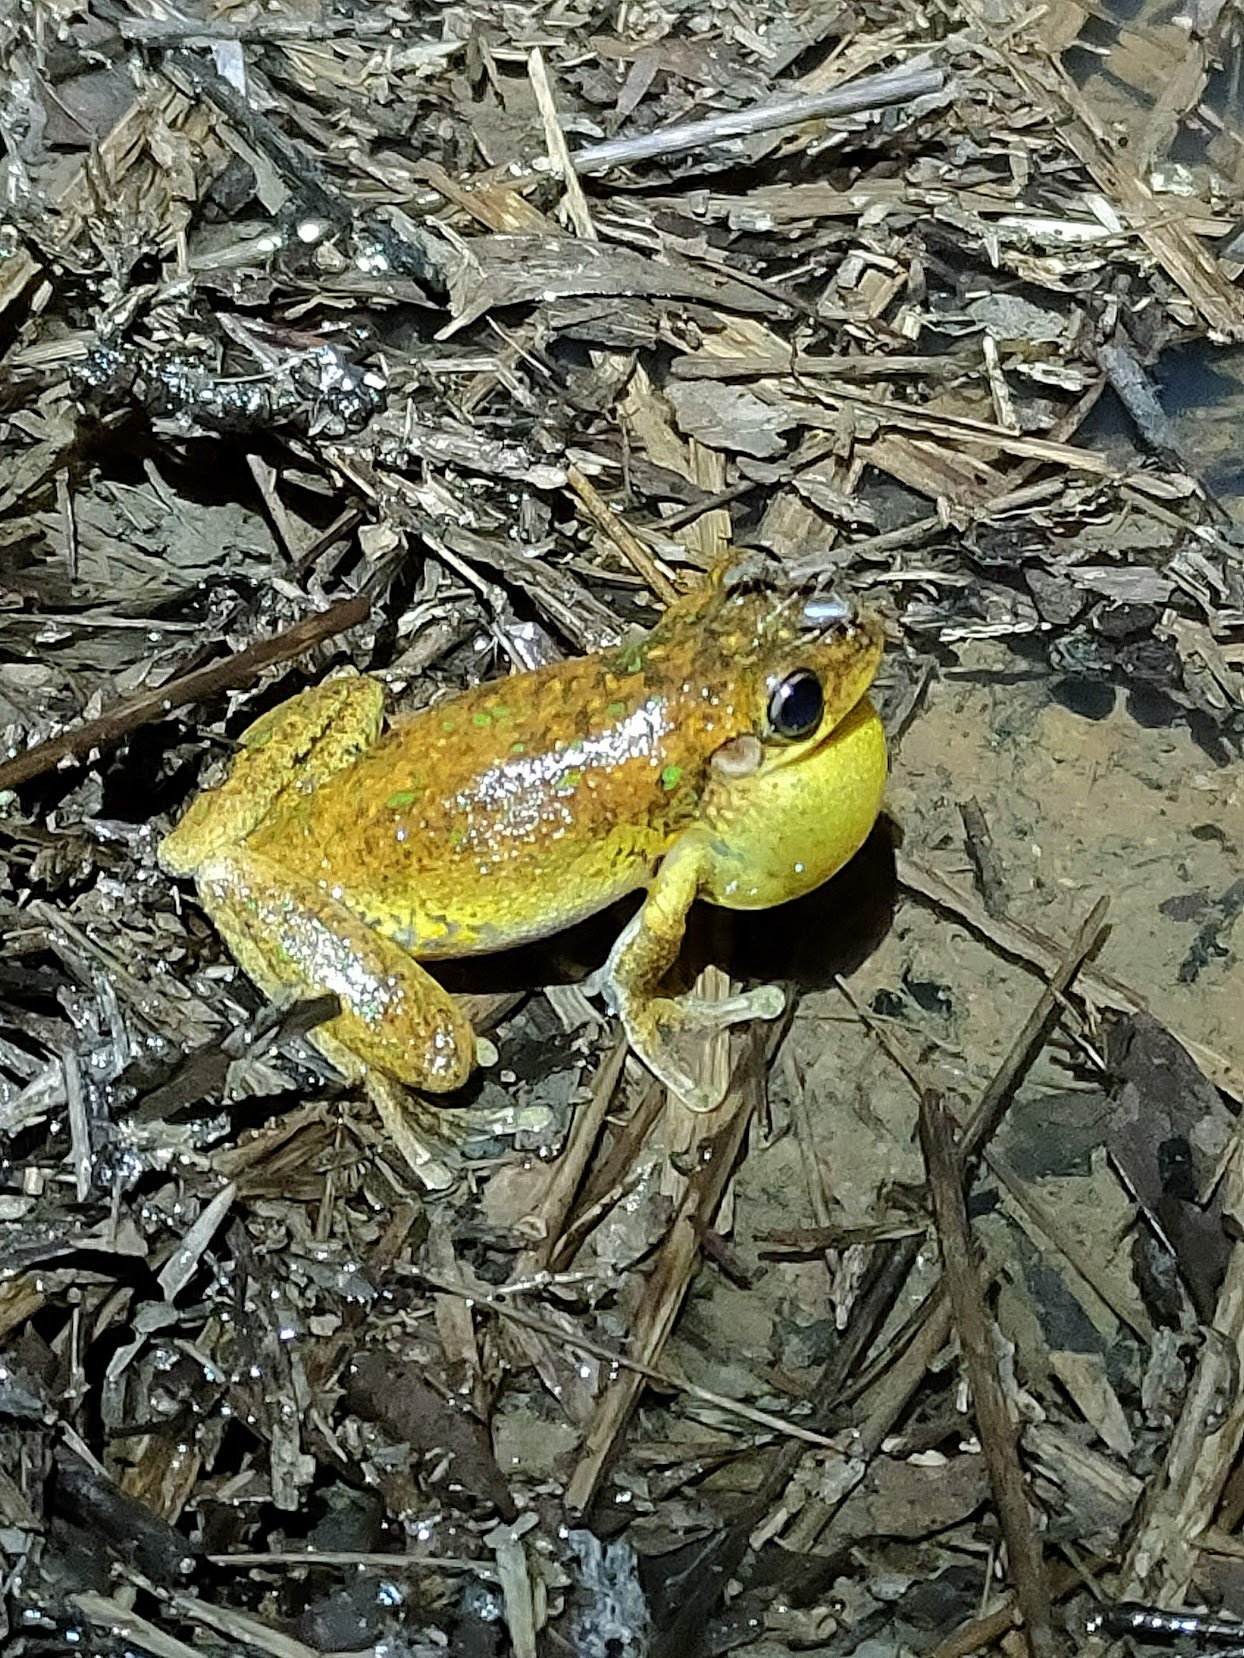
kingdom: Animalia
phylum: Chordata
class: Amphibia
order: Anura
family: Pelodryadidae
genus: Litoria
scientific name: Litoria tyleri
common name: Laughing tree frog
